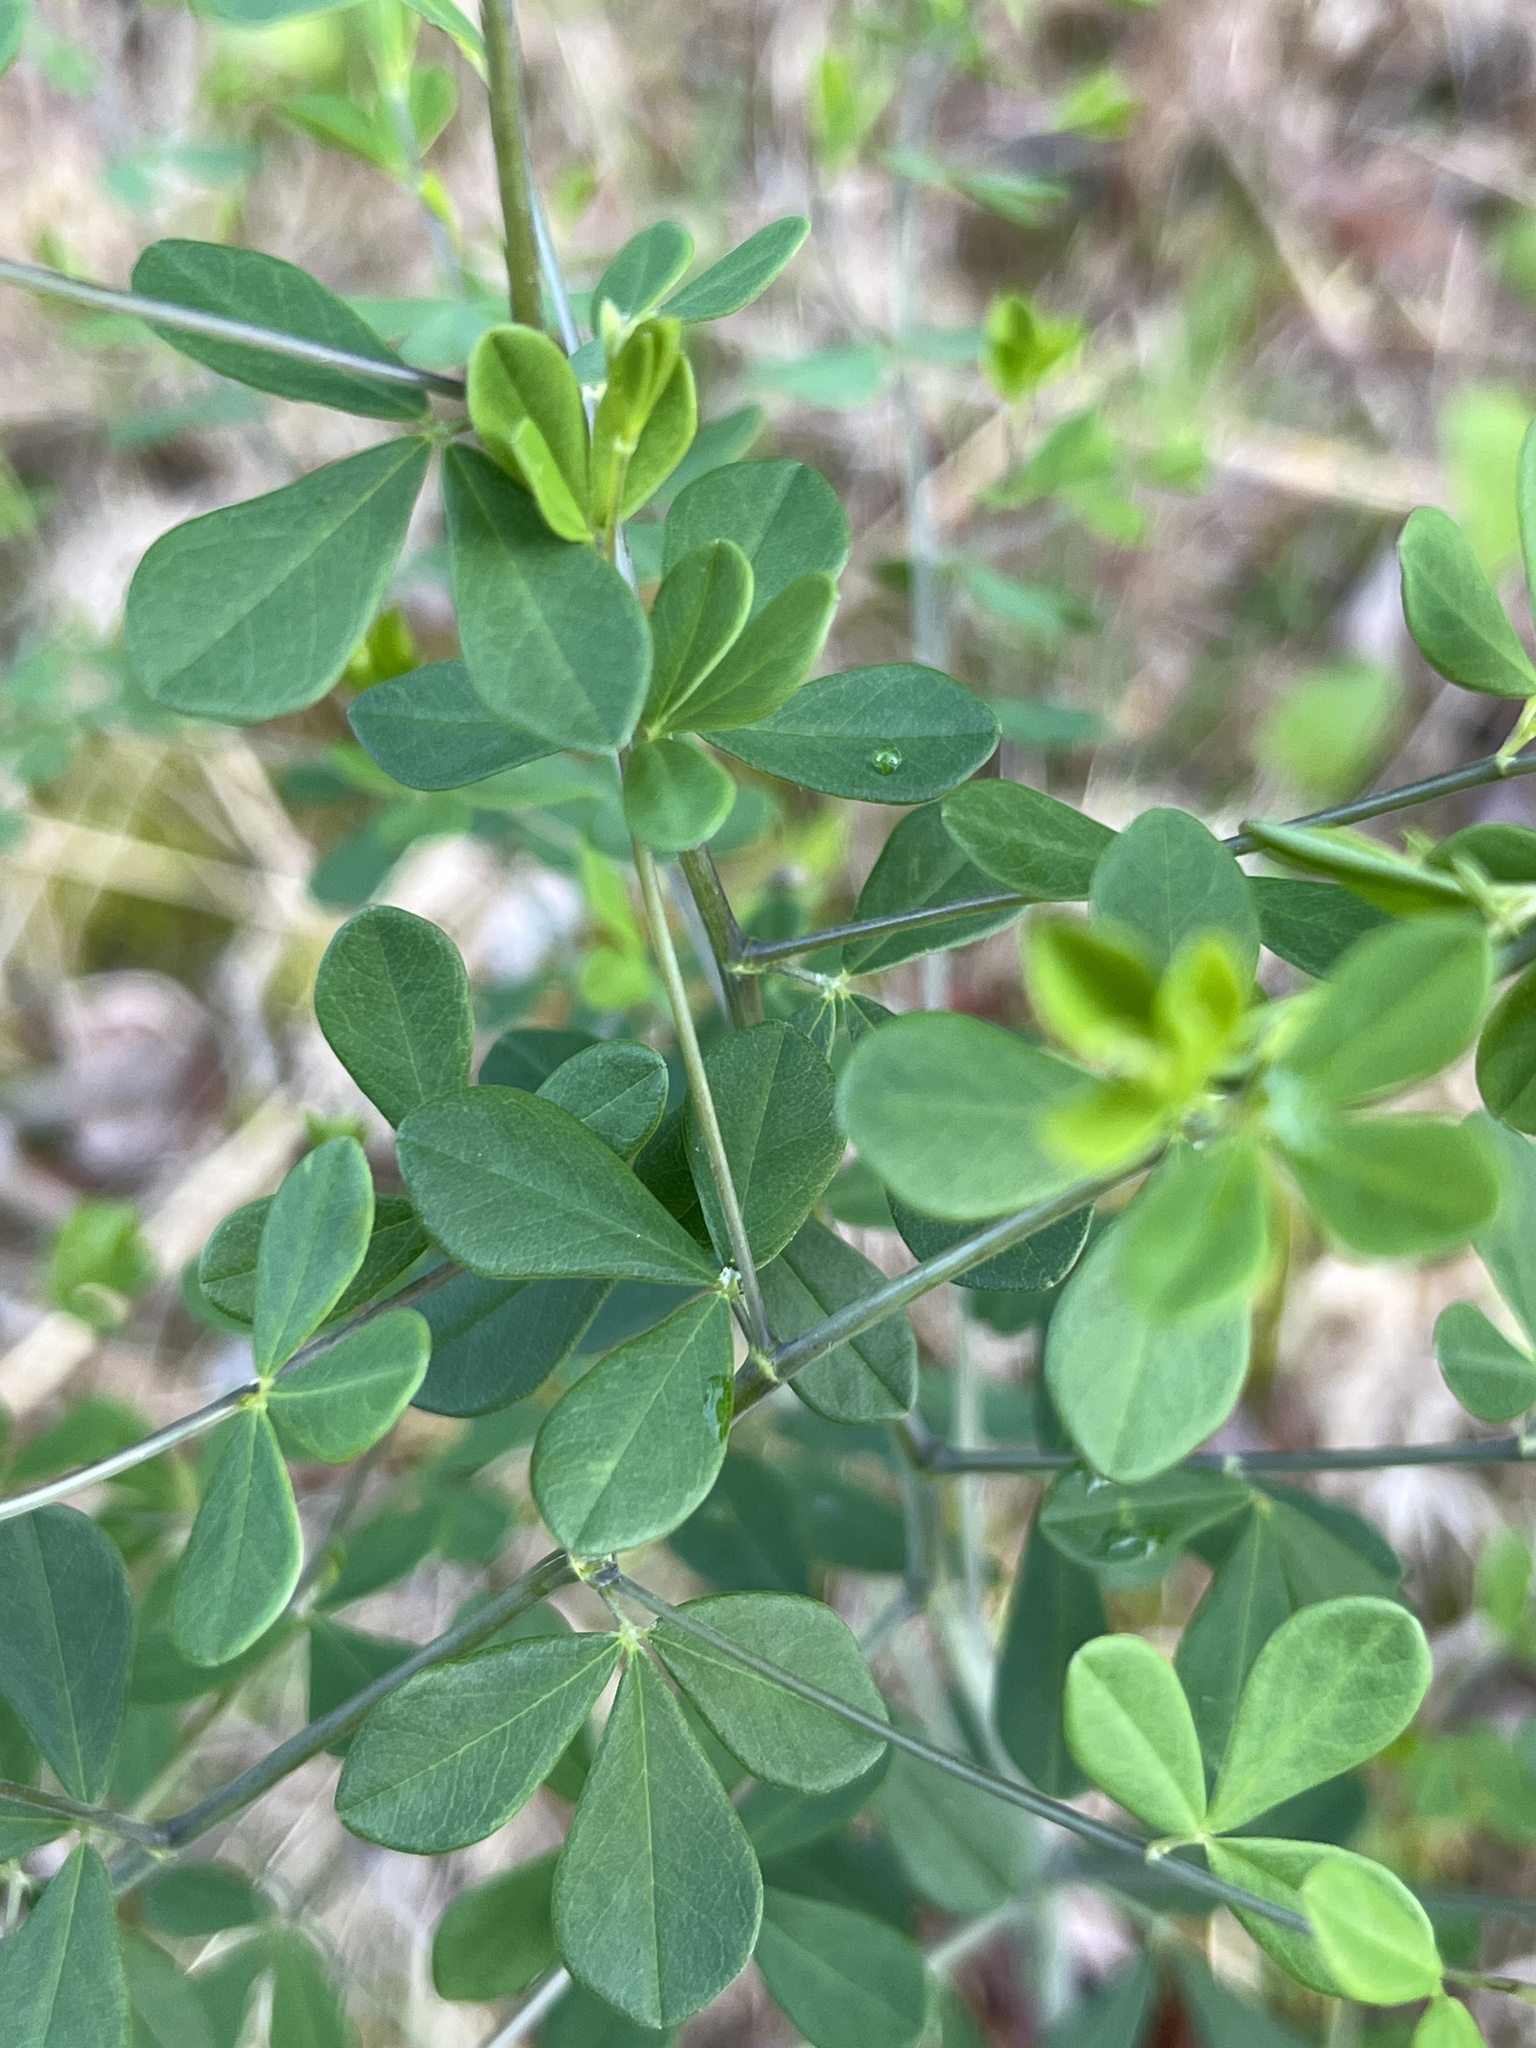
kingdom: Plantae
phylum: Tracheophyta
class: Magnoliopsida
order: Fabales
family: Fabaceae
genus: Baptisia
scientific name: Baptisia tinctoria
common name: Wild indigo
